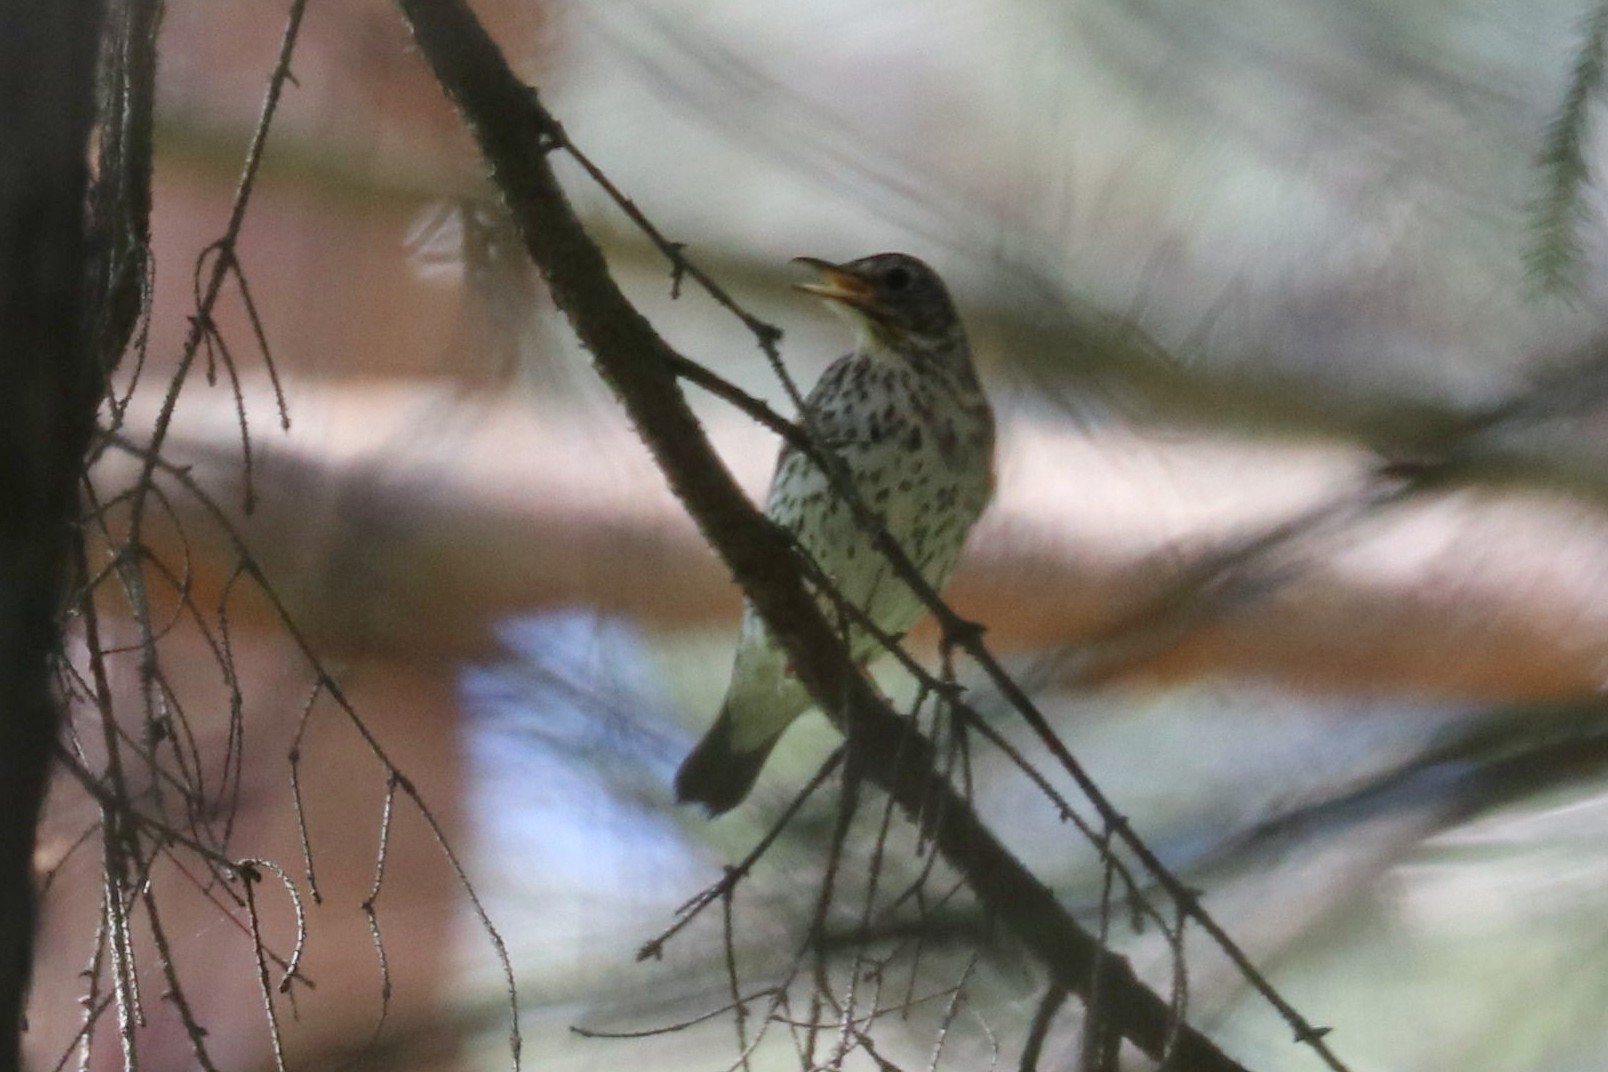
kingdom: Animalia
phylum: Chordata
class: Aves
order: Passeriformes
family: Turdidae
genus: Turdus
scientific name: Turdus philomelos
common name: Song thrush
